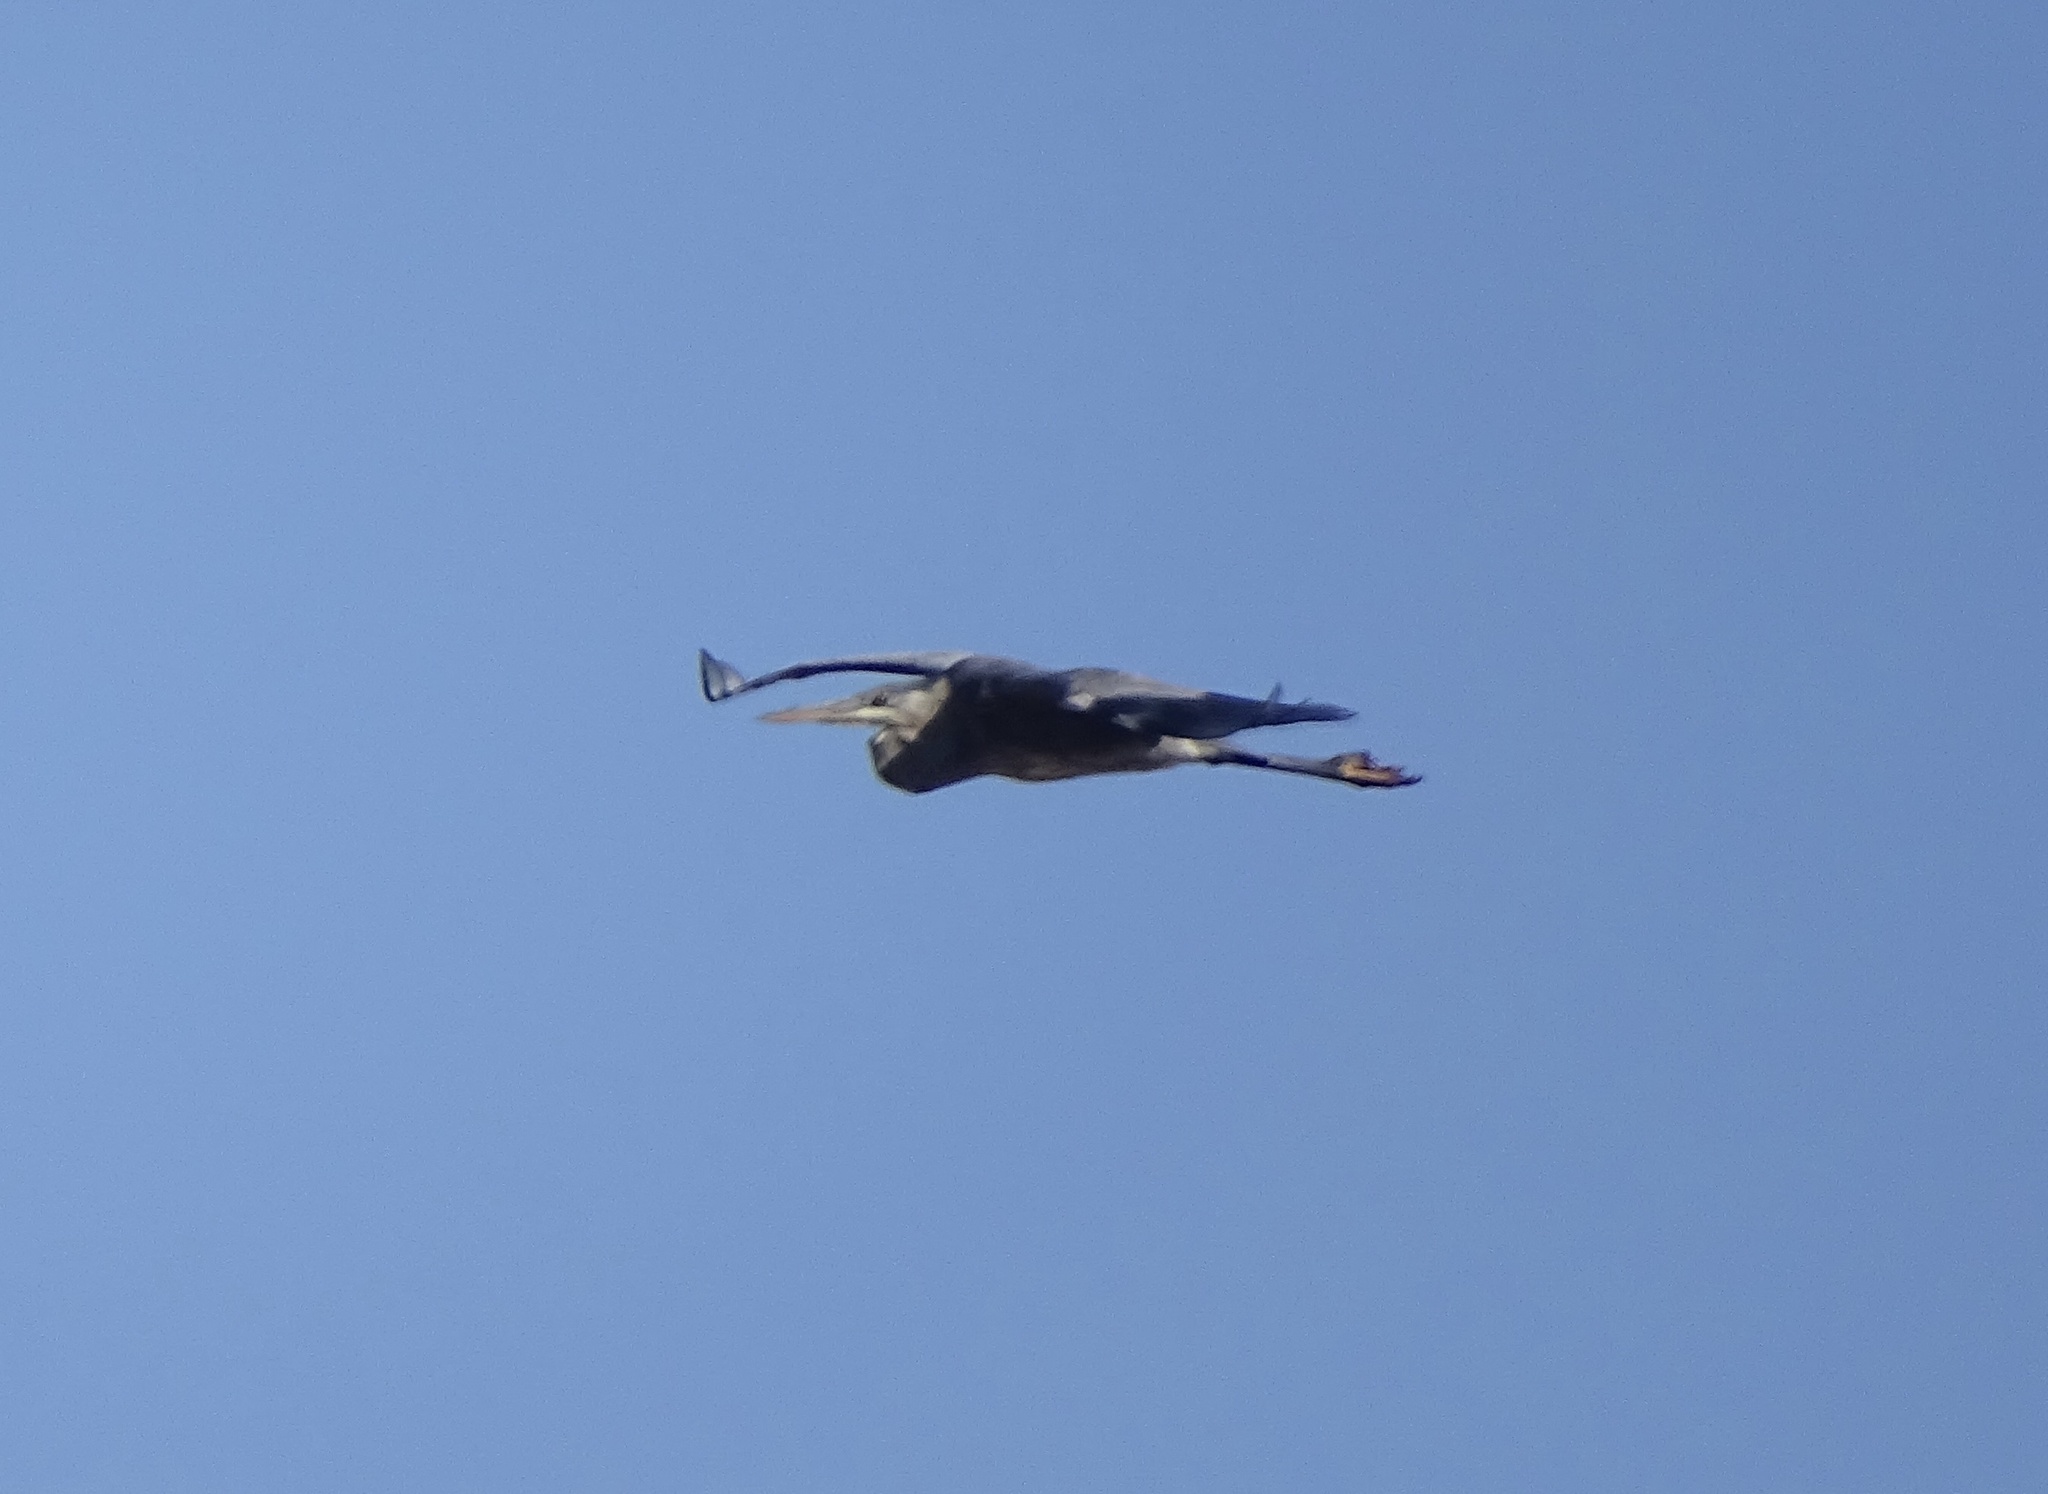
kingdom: Animalia
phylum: Chordata
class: Aves
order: Pelecaniformes
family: Ardeidae
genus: Ardea
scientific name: Ardea herodias
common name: Great blue heron
